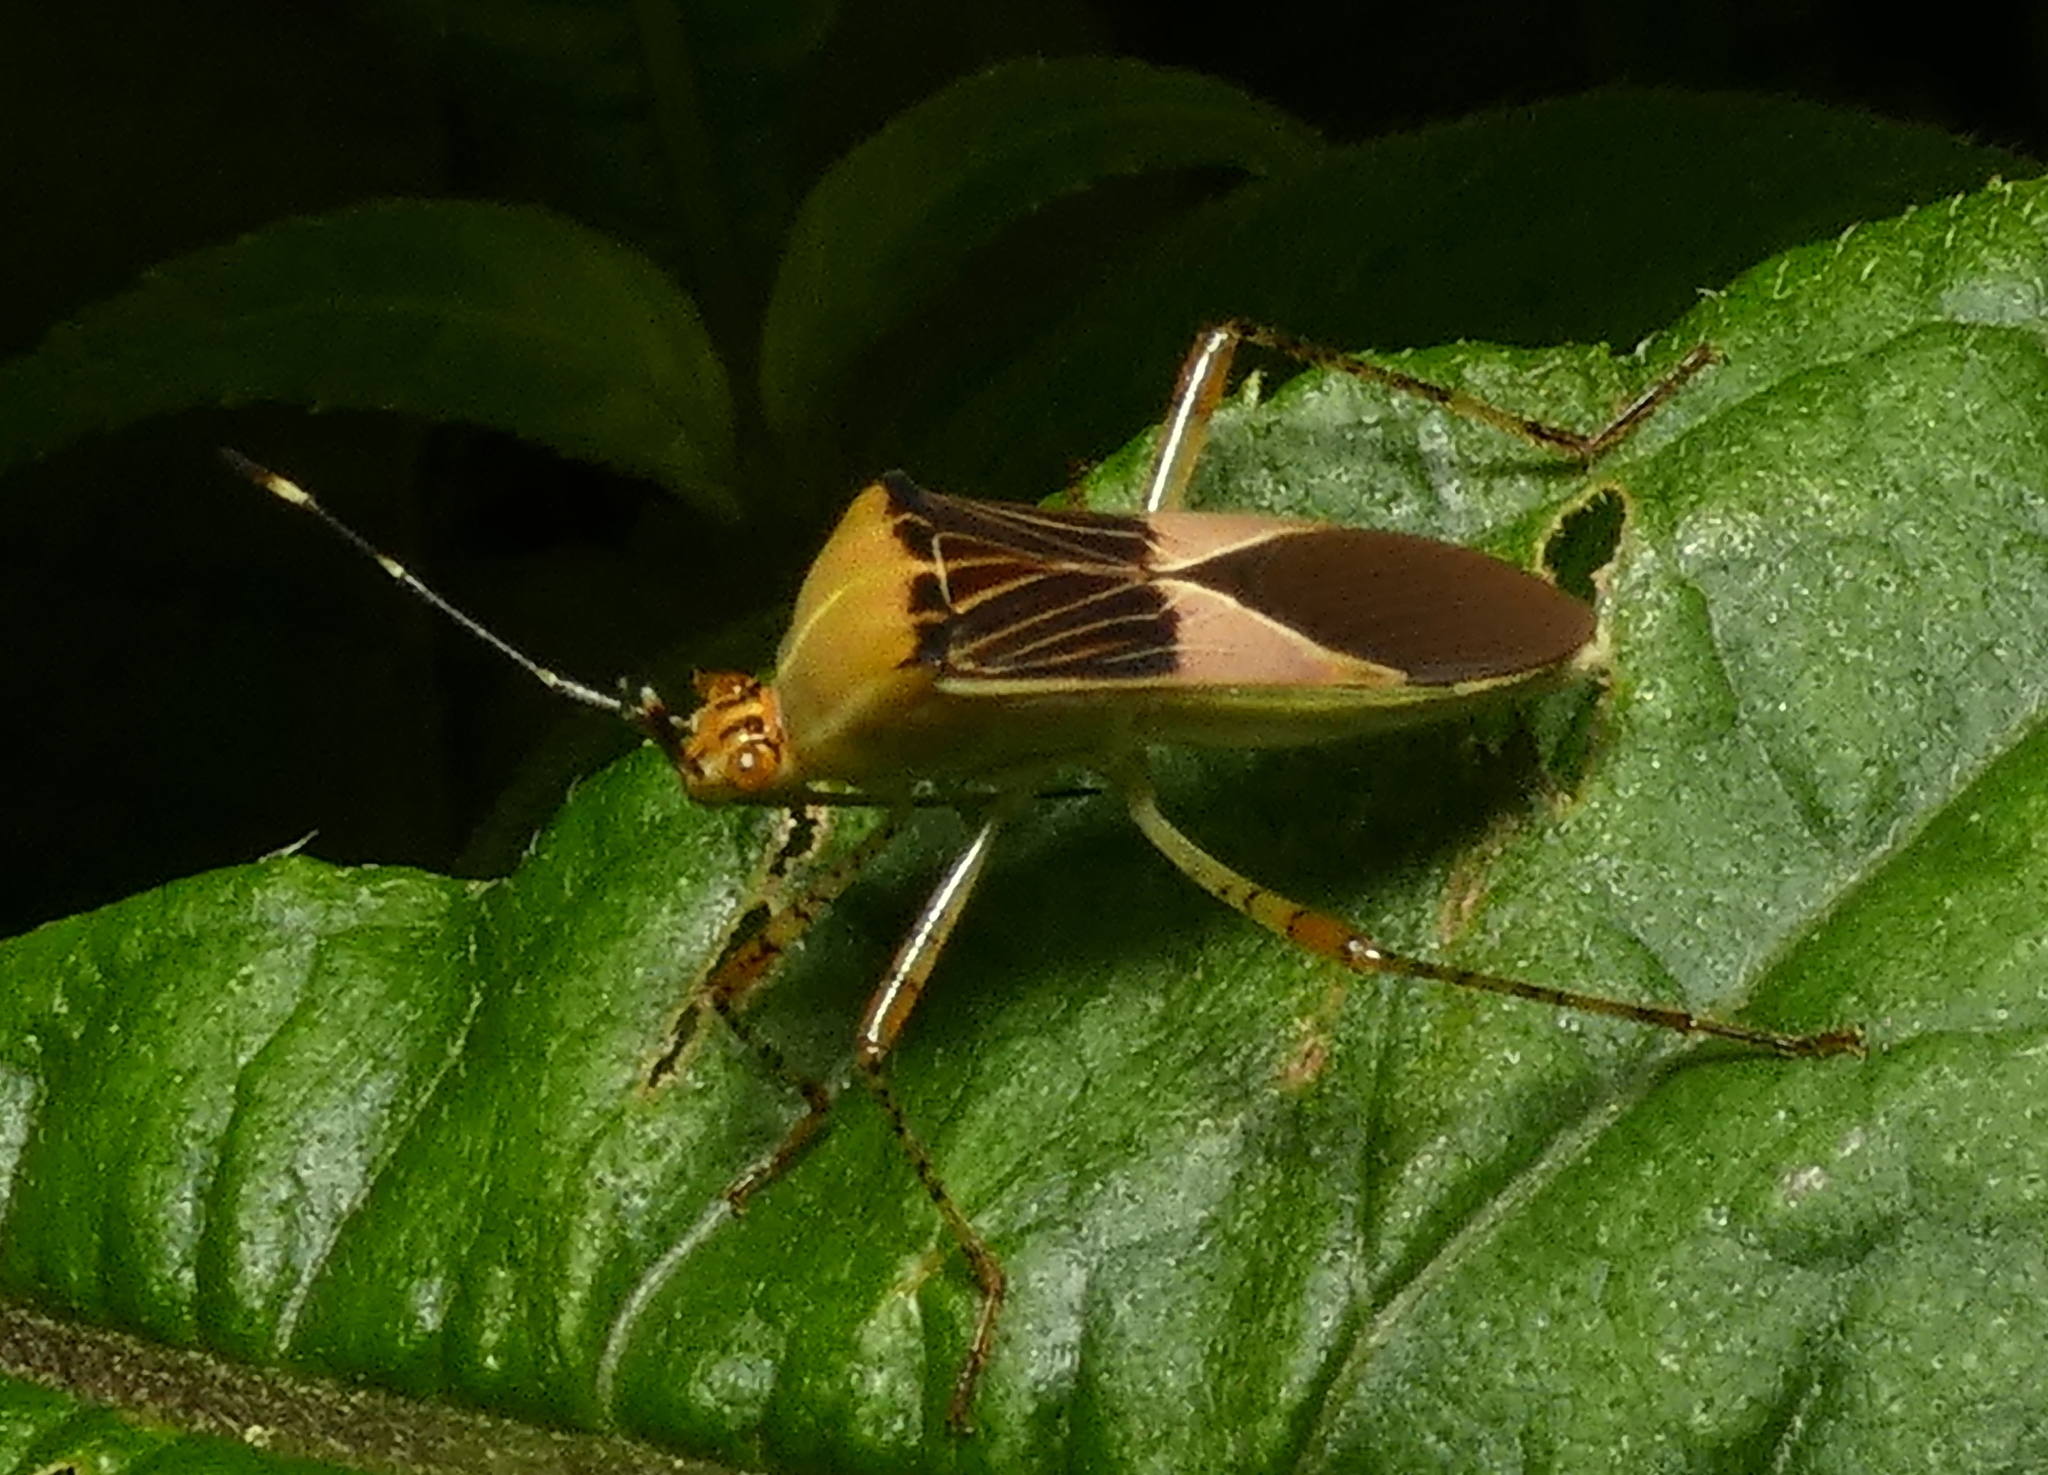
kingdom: Animalia
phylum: Arthropoda
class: Insecta
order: Hemiptera
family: Coreidae
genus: Hypselonotus
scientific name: Hypselonotus fulvus
